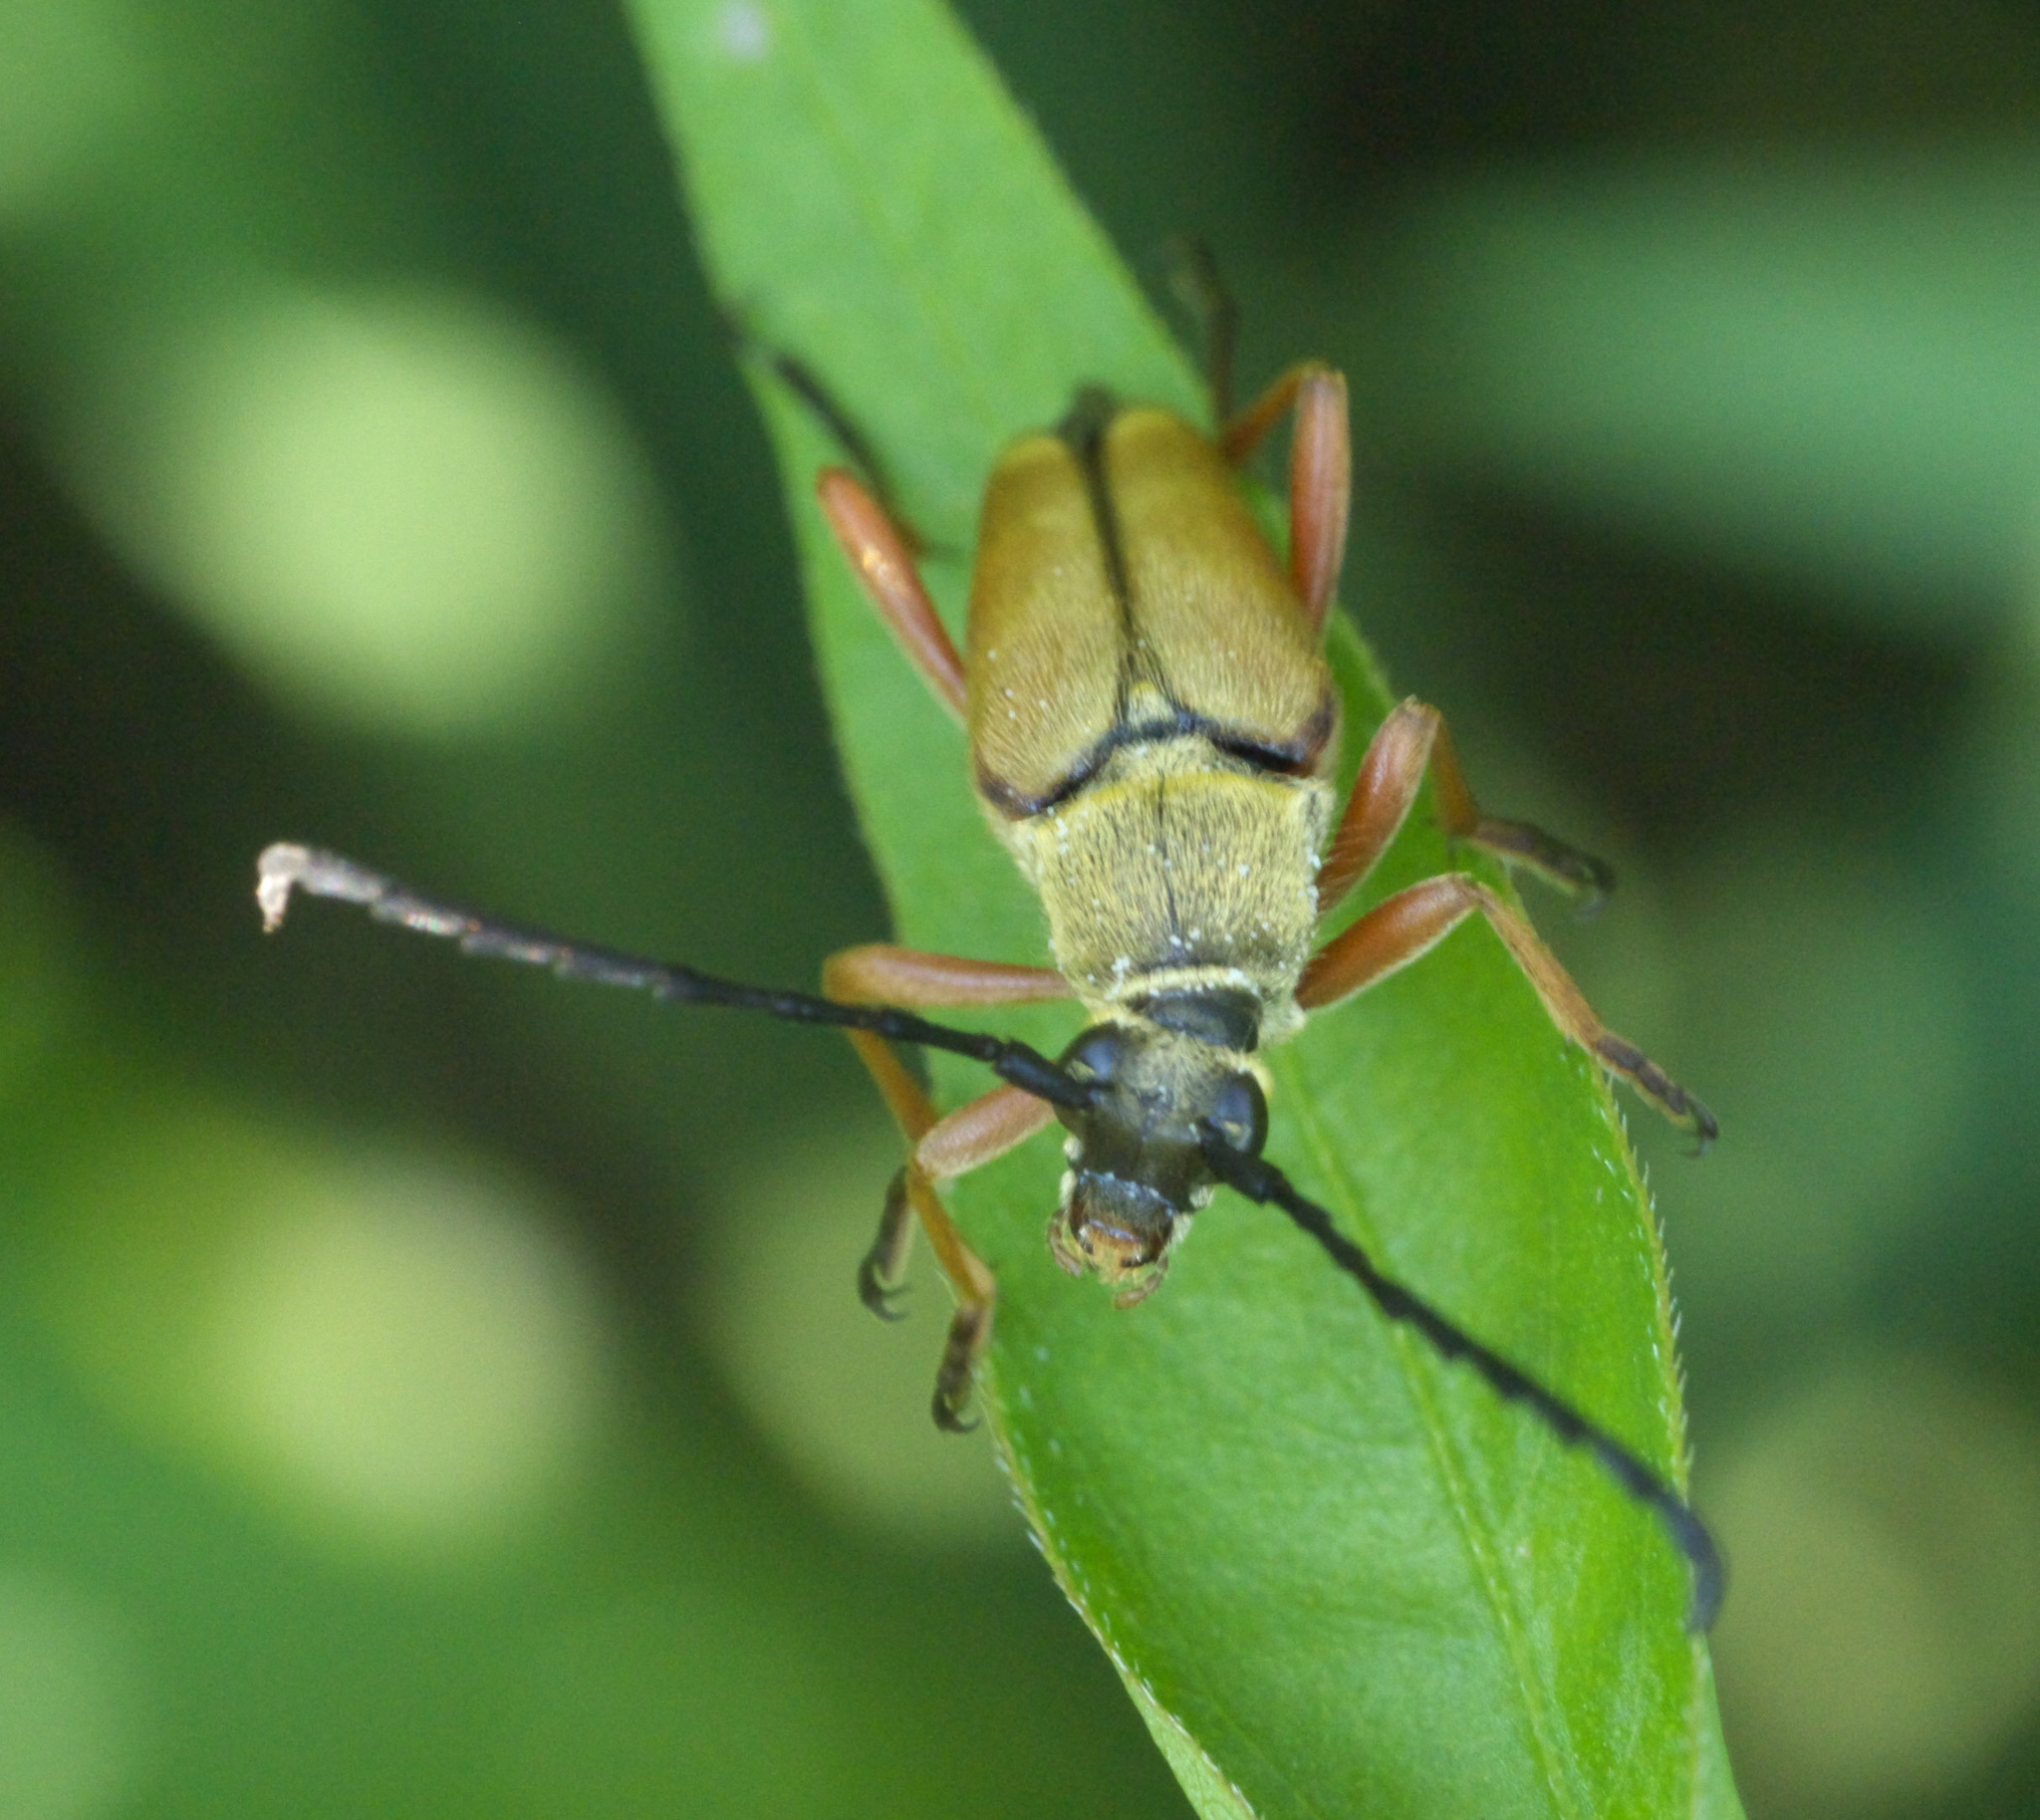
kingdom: Animalia
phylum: Arthropoda
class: Insecta
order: Coleoptera
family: Cerambycidae
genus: Typocerus
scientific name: Typocerus acuticauda
